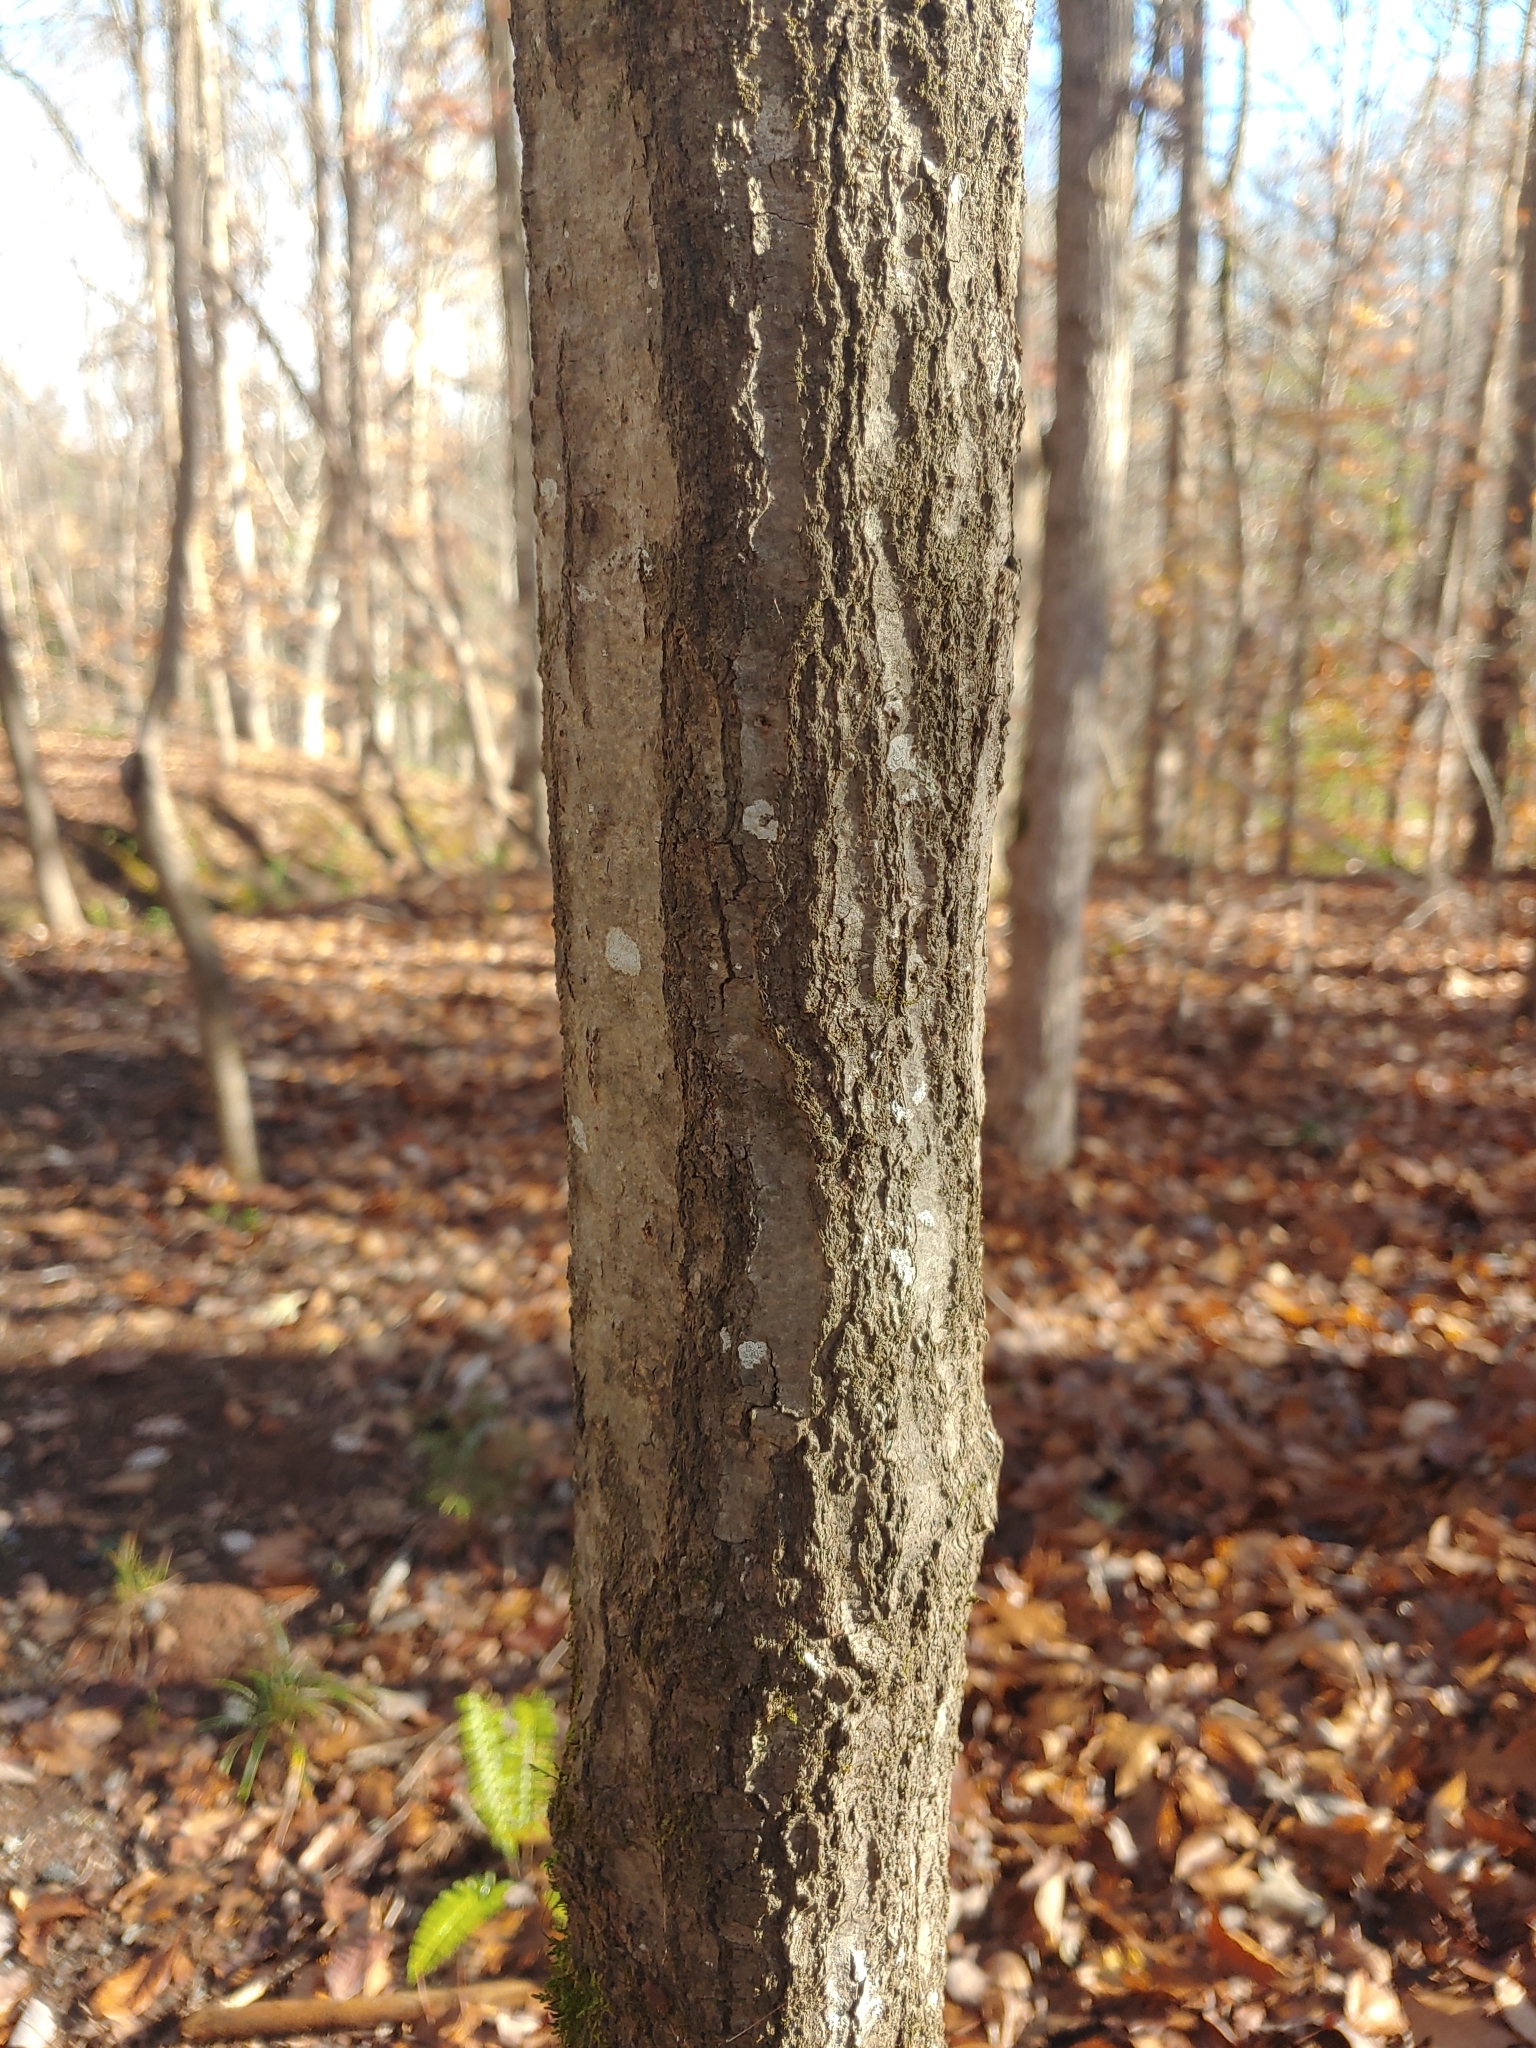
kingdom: Plantae
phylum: Tracheophyta
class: Magnoliopsida
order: Fagales
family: Fagaceae
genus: Quercus
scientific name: Quercus phellos
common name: Willow oak
